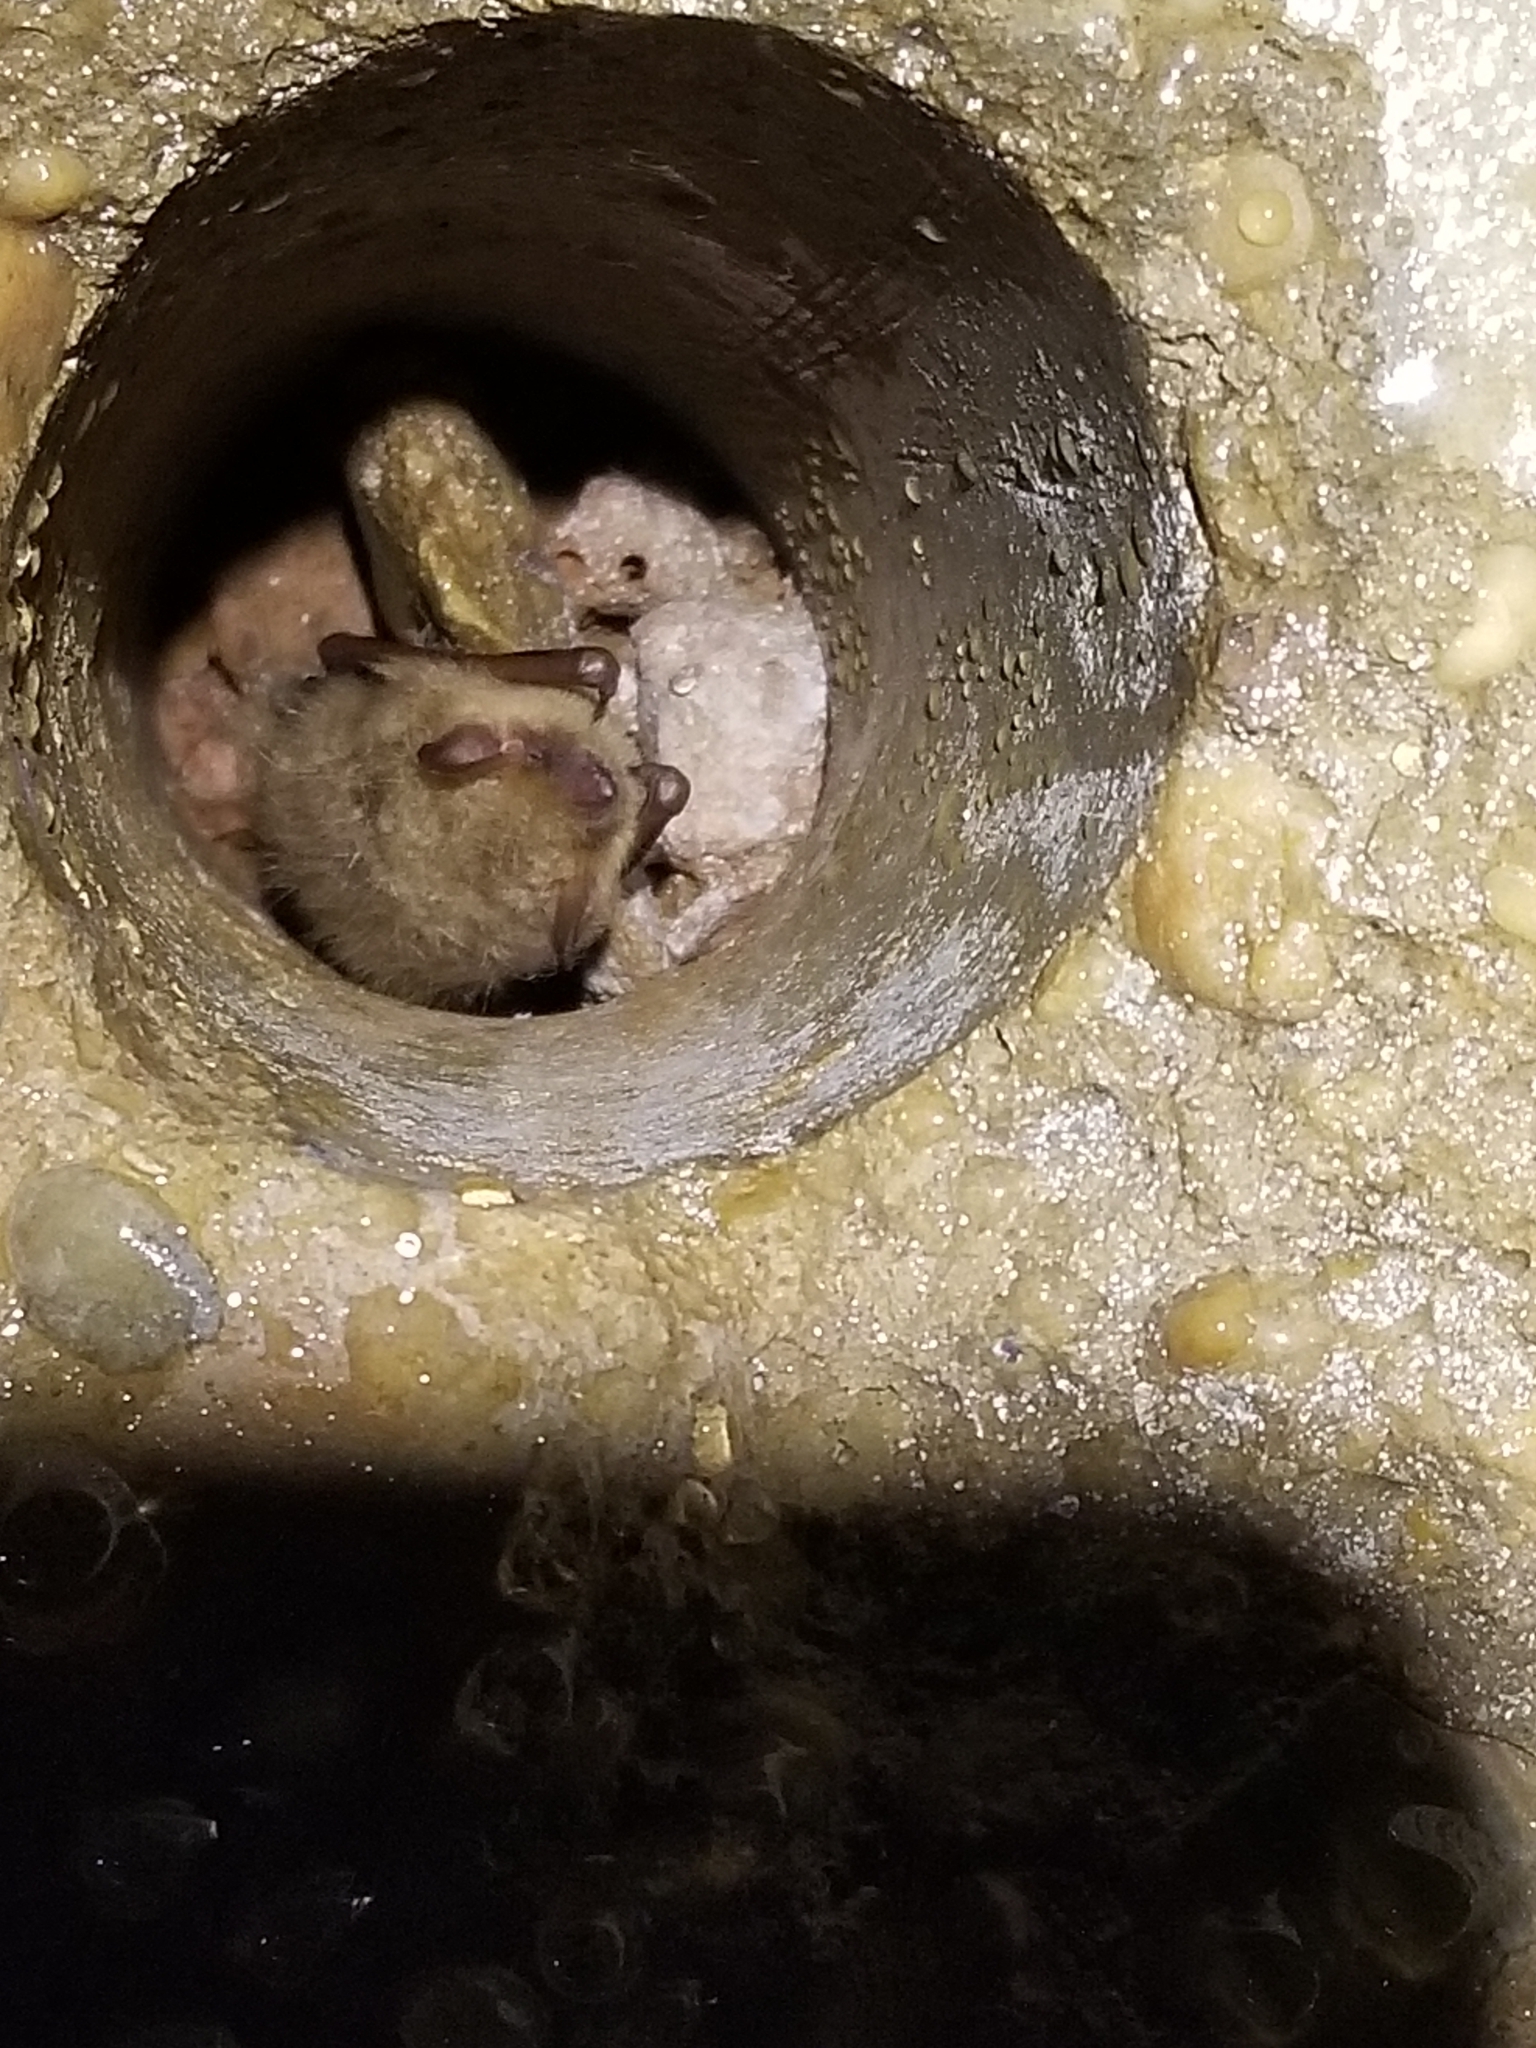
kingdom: Animalia
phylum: Chordata
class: Mammalia
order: Chiroptera
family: Vespertilionidae
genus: Perimyotis
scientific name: Perimyotis subflavus
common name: Eastern pipistrelle
